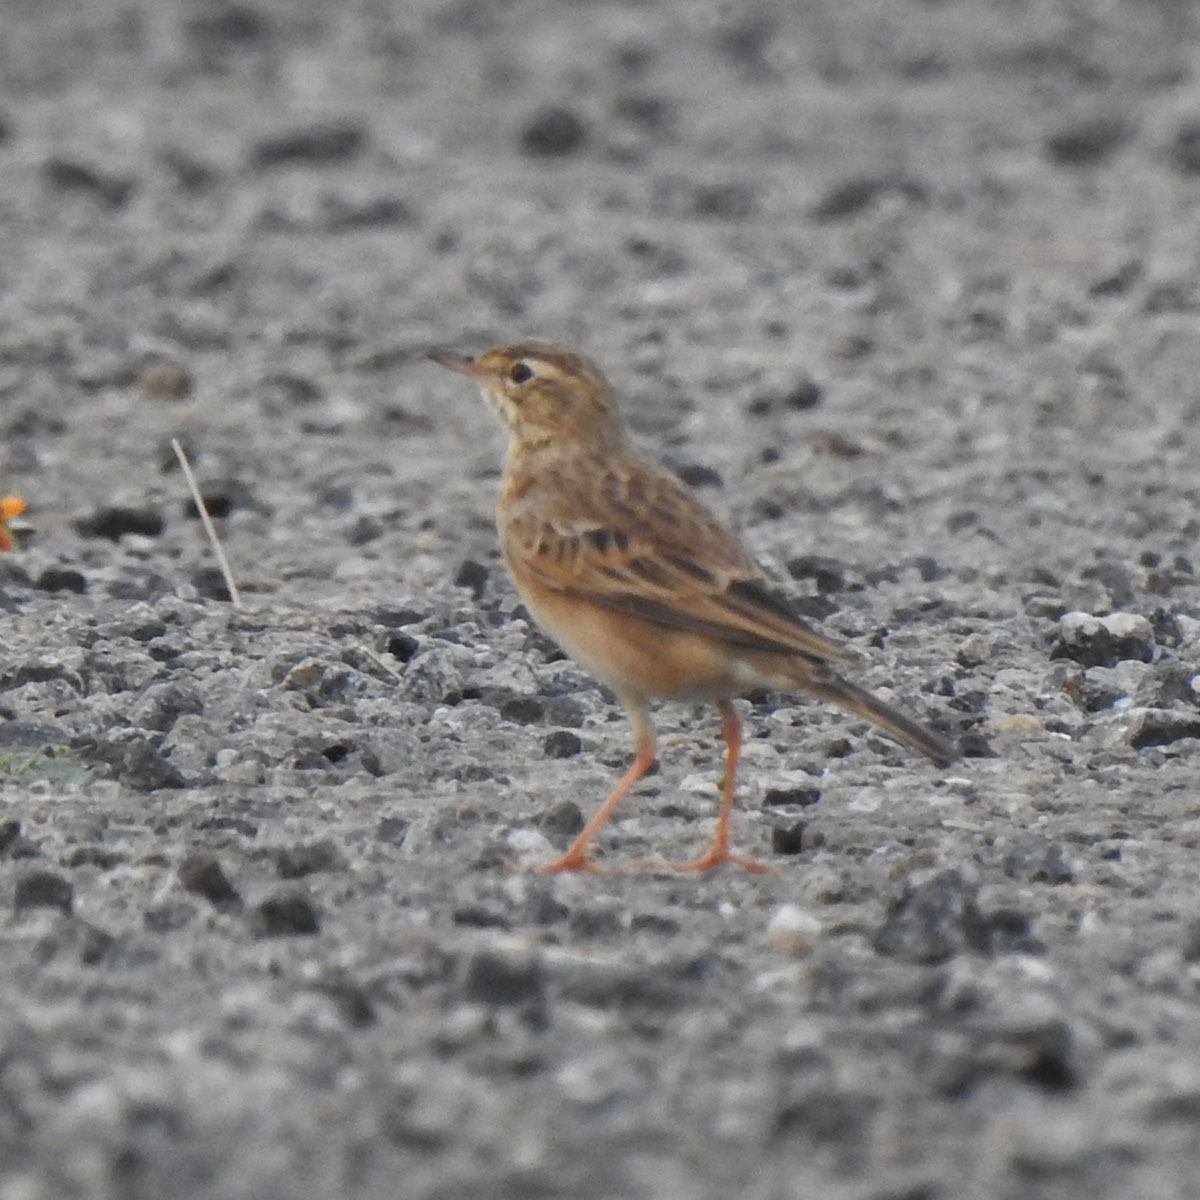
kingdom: Animalia
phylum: Chordata
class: Aves
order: Passeriformes
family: Motacillidae
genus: Anthus
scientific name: Anthus rufulus
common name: Paddyfield pipit
